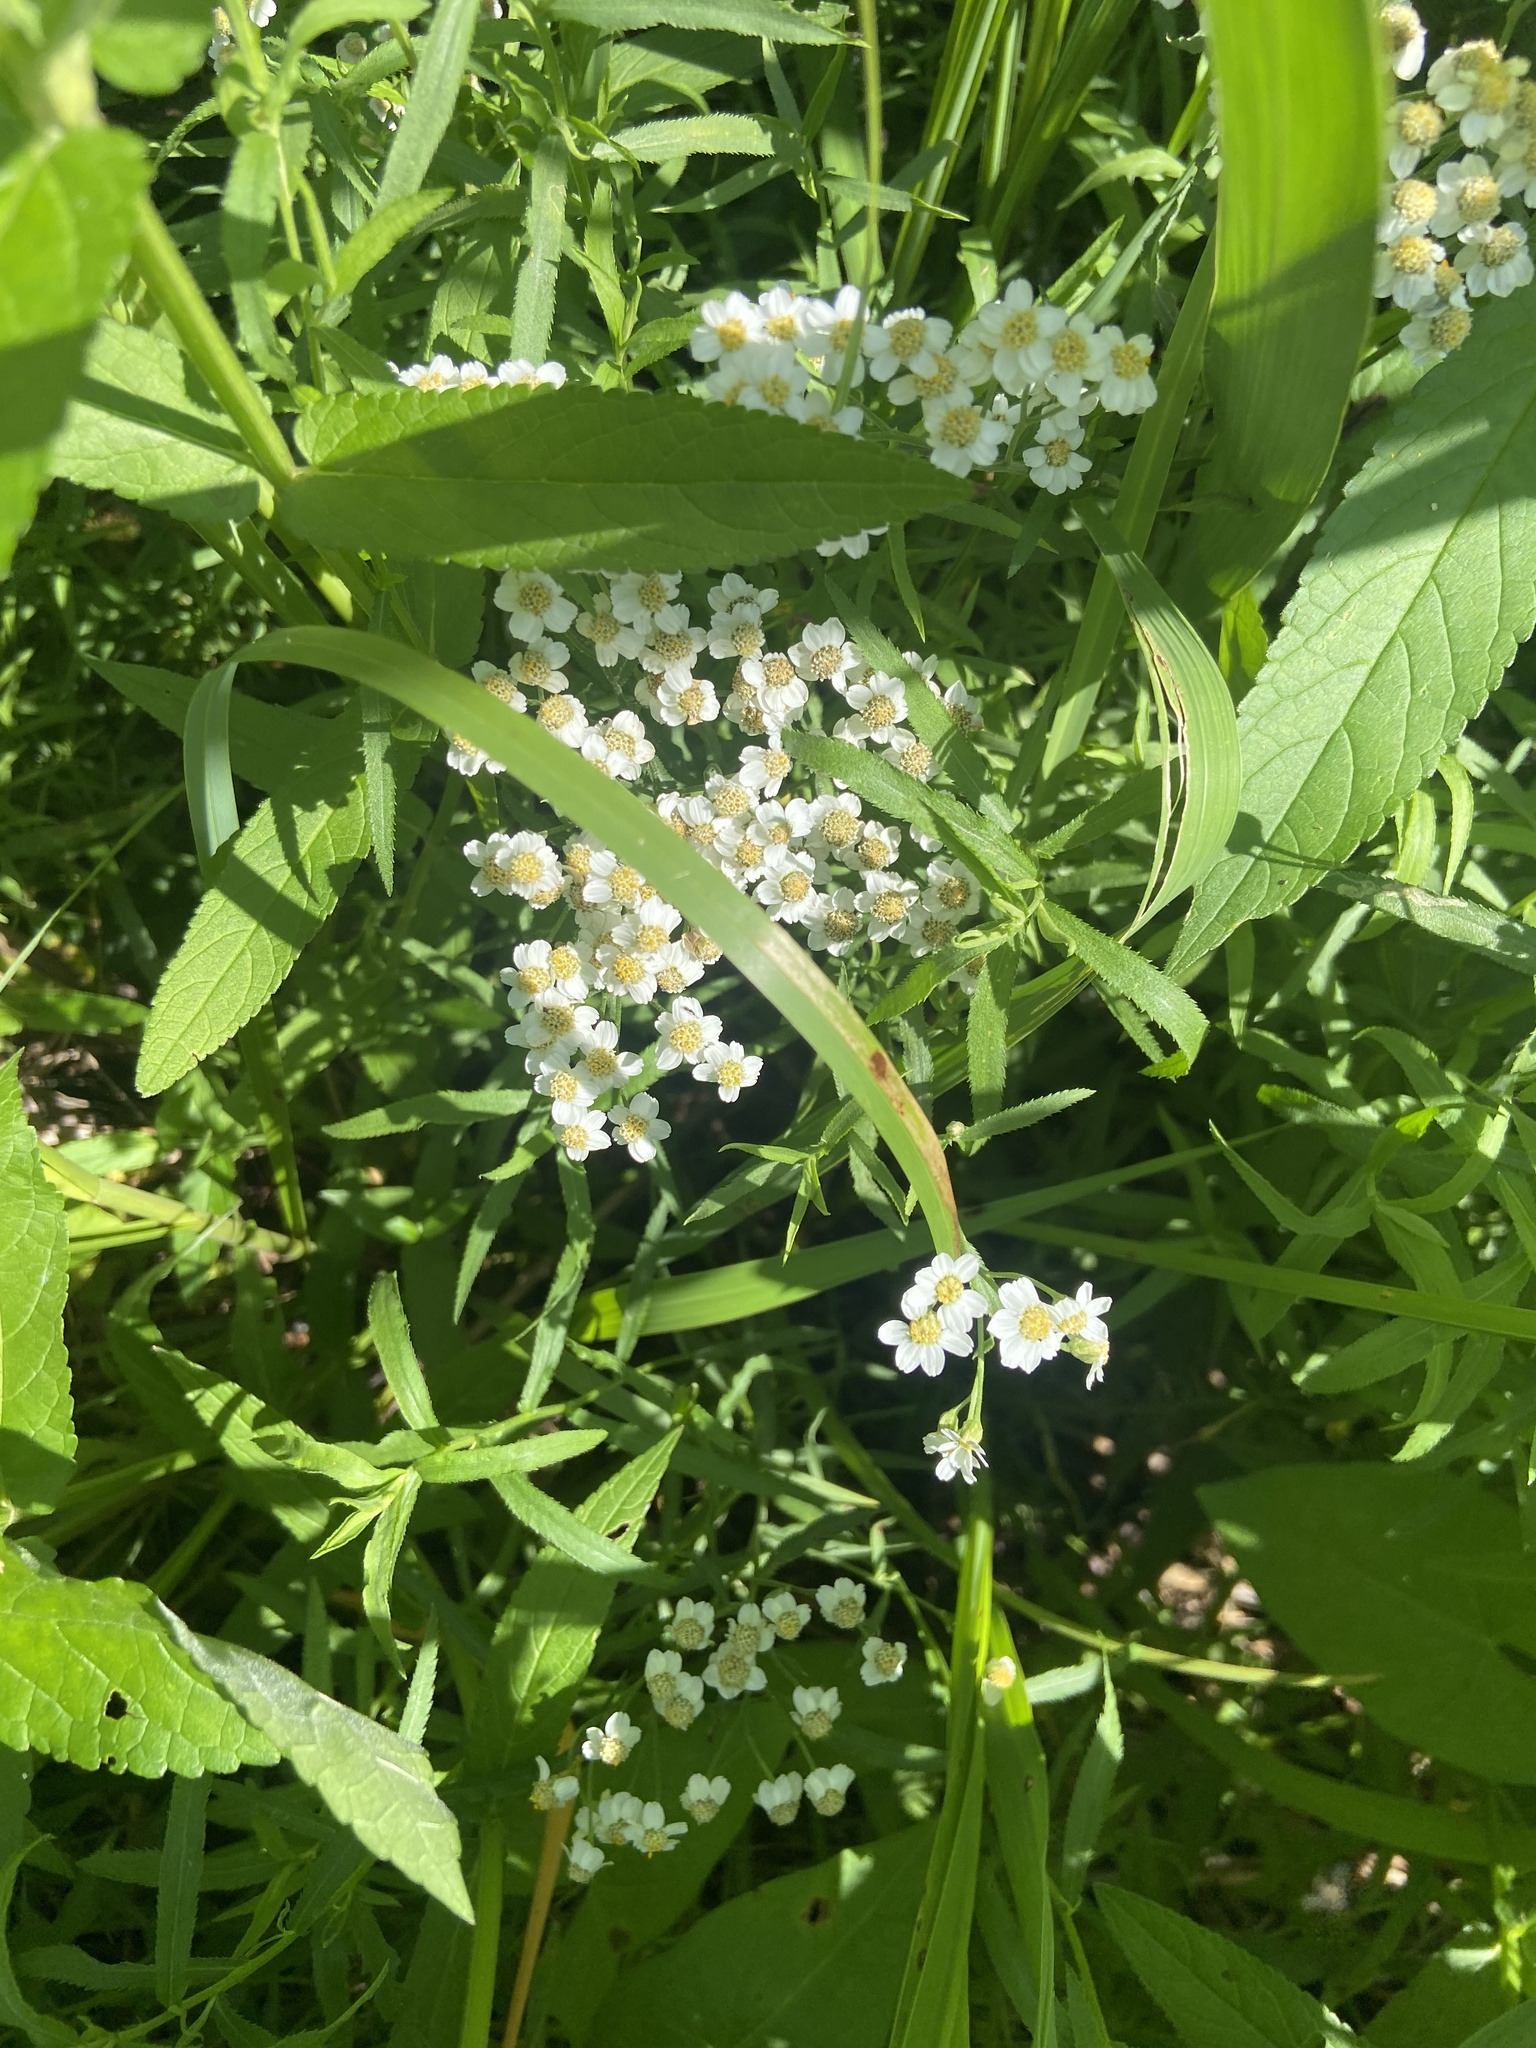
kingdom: Plantae
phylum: Tracheophyta
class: Magnoliopsida
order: Asterales
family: Asteraceae
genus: Achillea
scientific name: Achillea salicifolia
